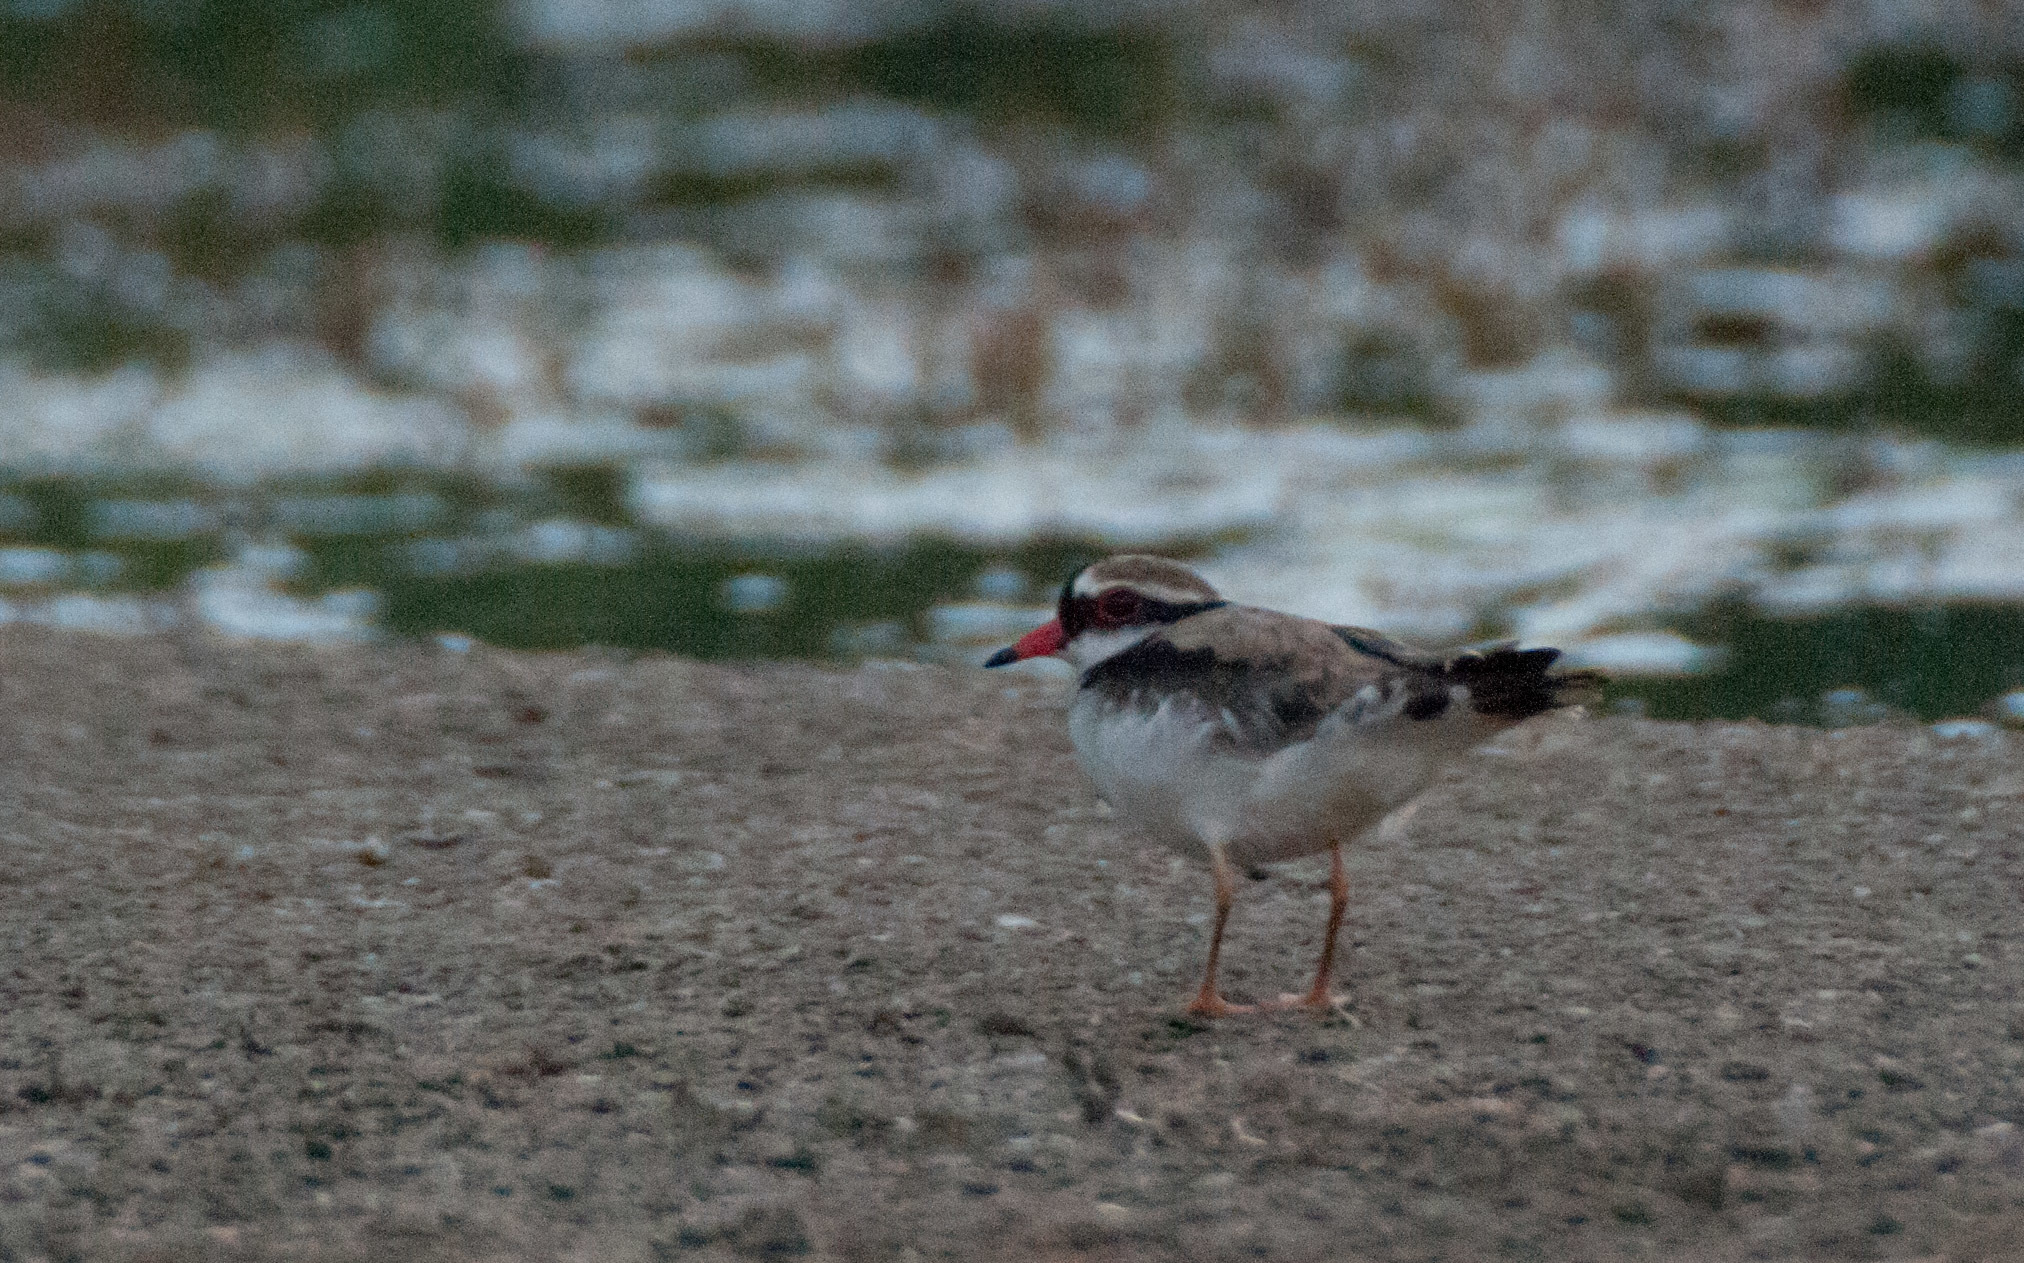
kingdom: Animalia
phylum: Chordata
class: Aves
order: Charadriiformes
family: Charadriidae
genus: Elseyornis
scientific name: Elseyornis melanops
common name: Black-fronted dotterel
